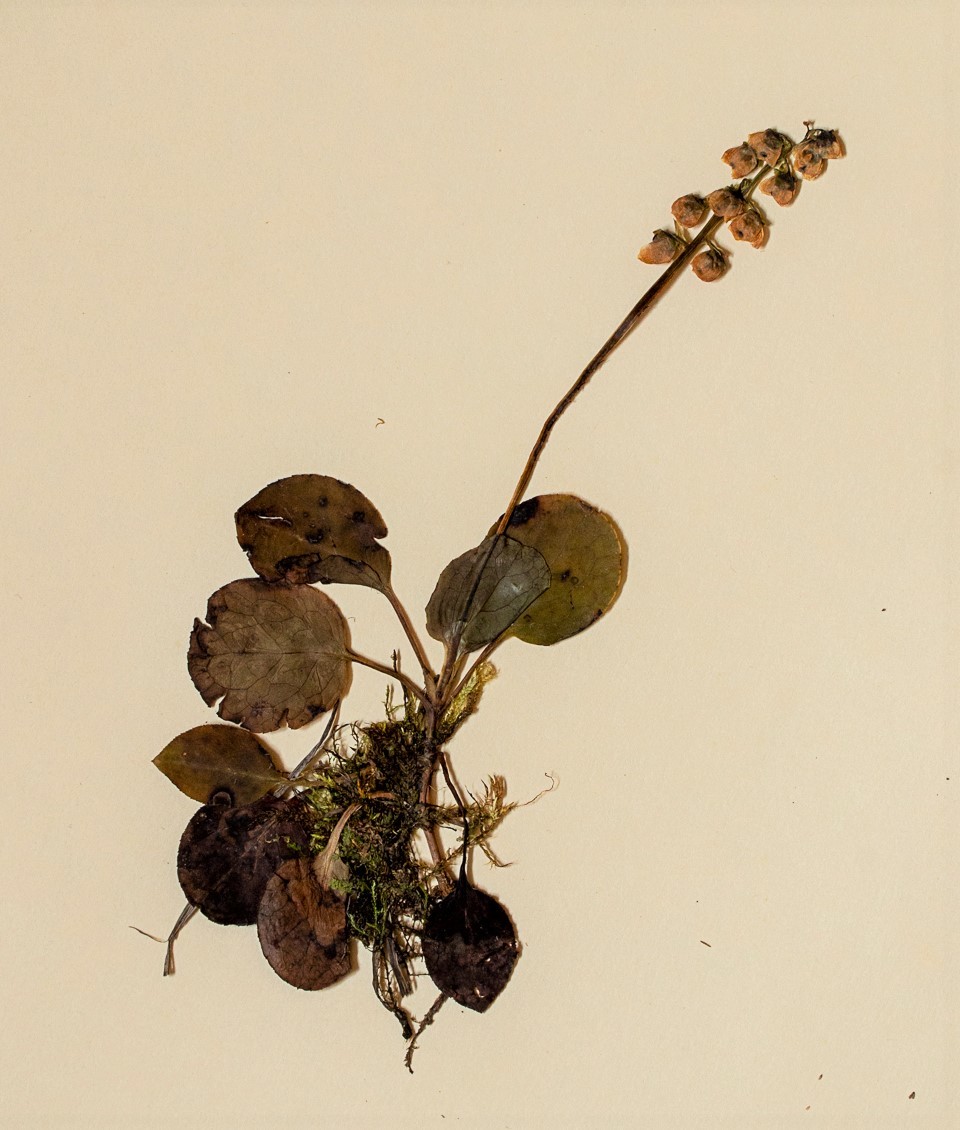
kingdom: Plantae
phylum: Tracheophyta
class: Magnoliopsida
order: Ericales
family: Ericaceae
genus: Pyrola
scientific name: Pyrola minor
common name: Common wintergreen
